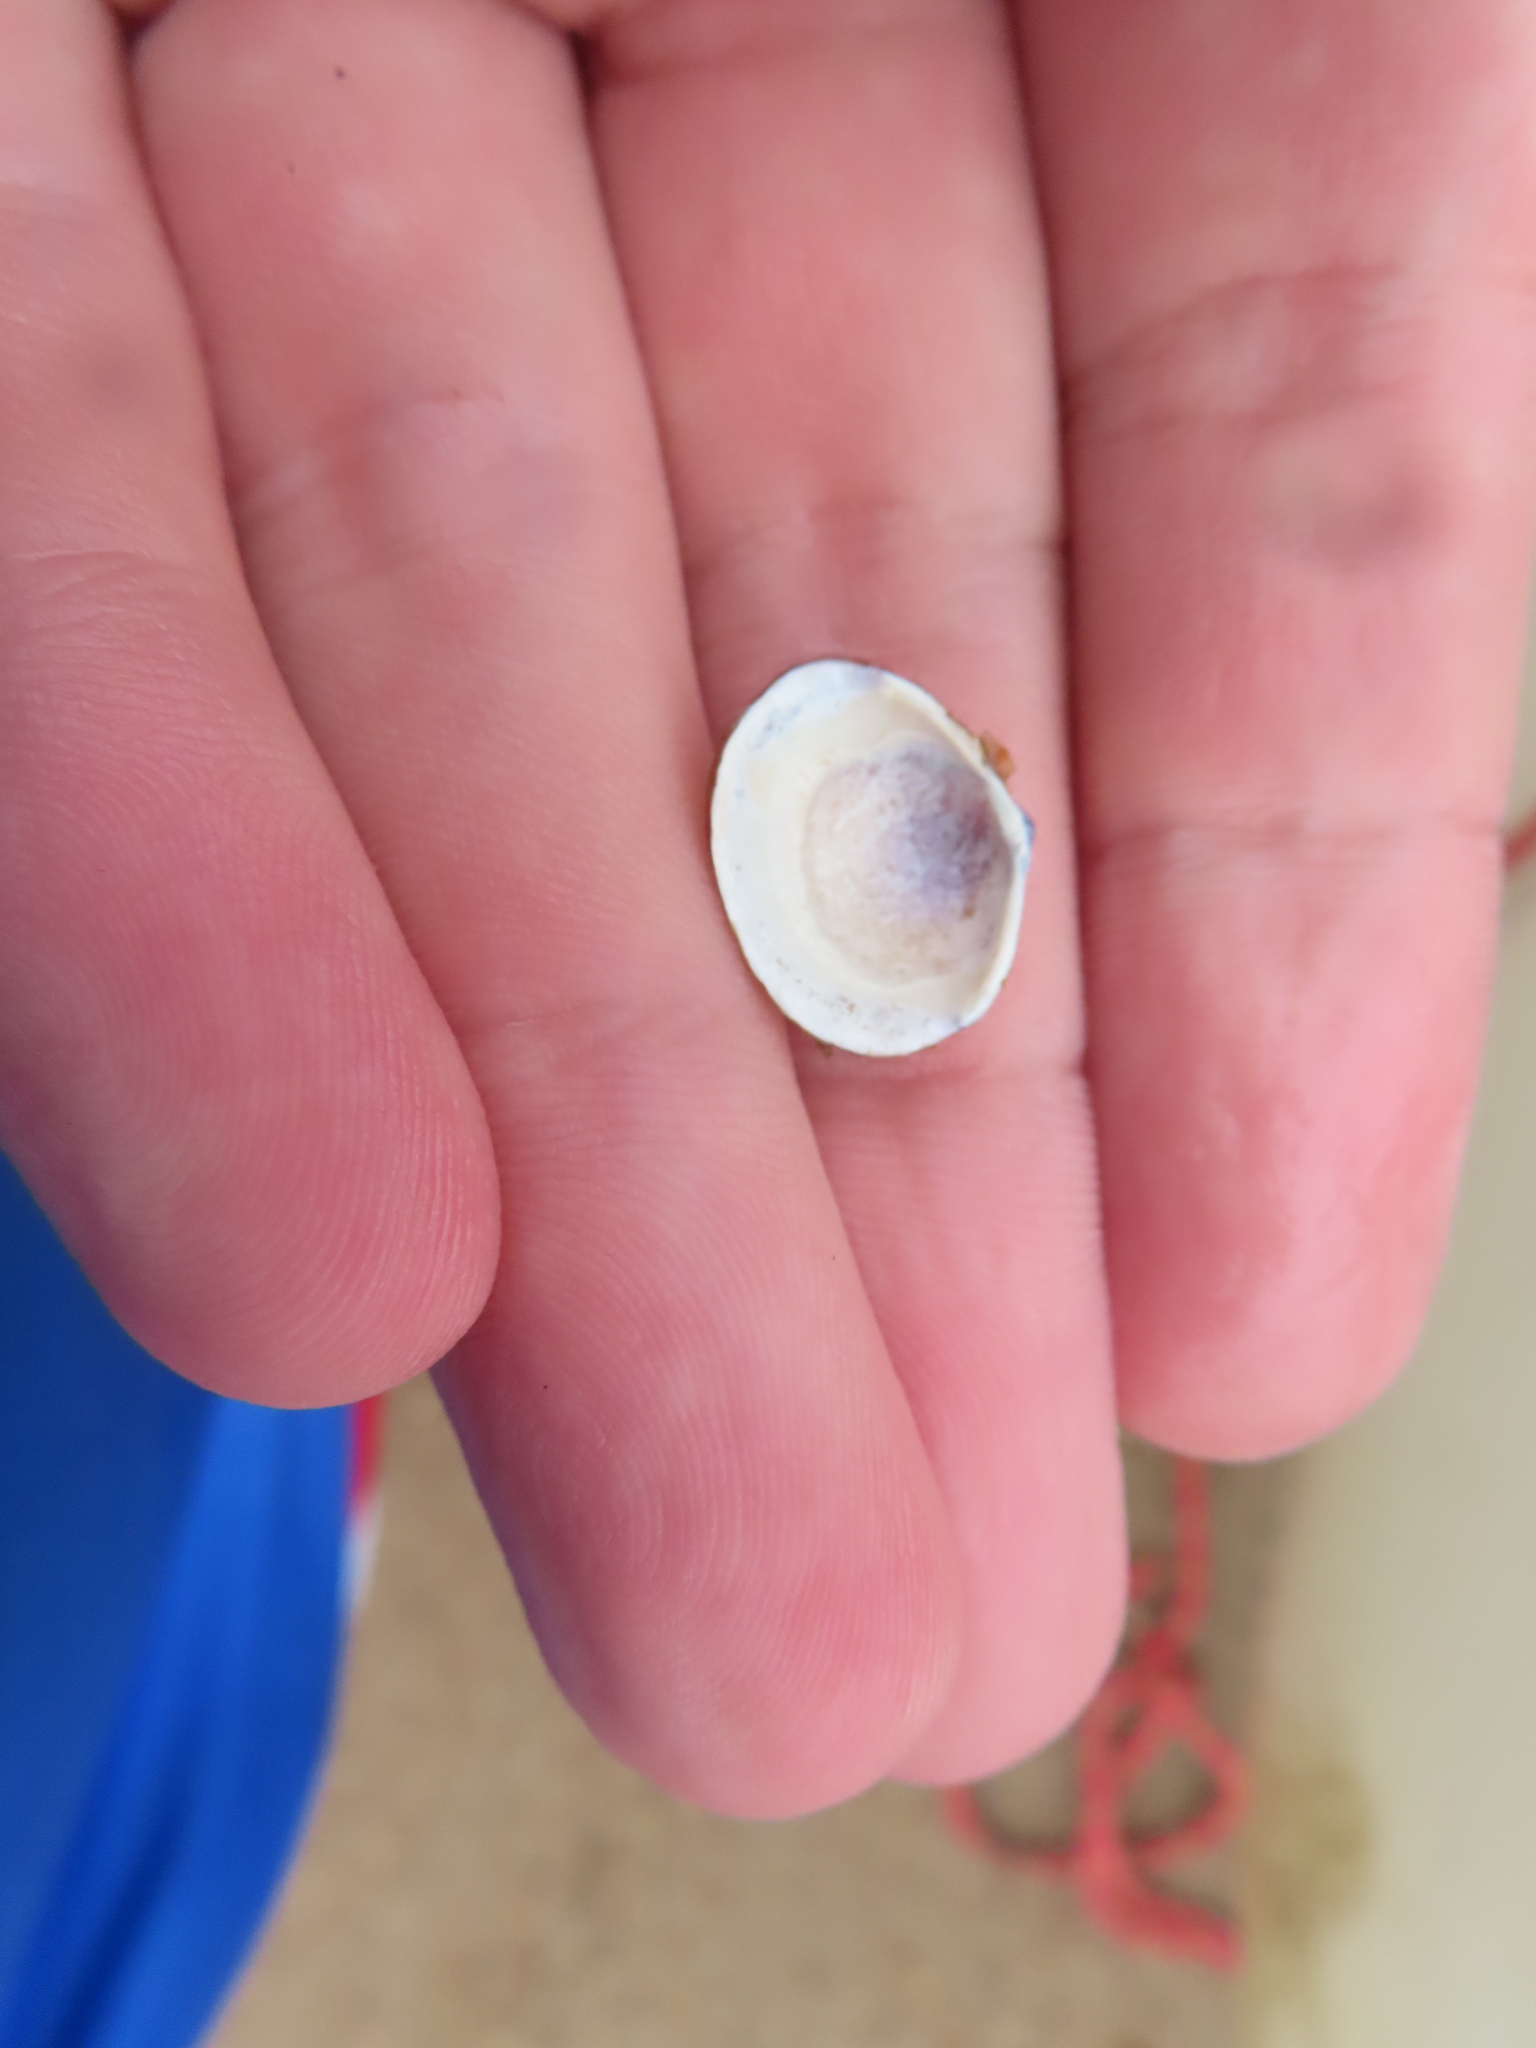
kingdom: Animalia
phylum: Mollusca
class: Bivalvia
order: Venerida
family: Cyrenidae
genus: Corbicula
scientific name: Corbicula fluminea
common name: Asian clam
